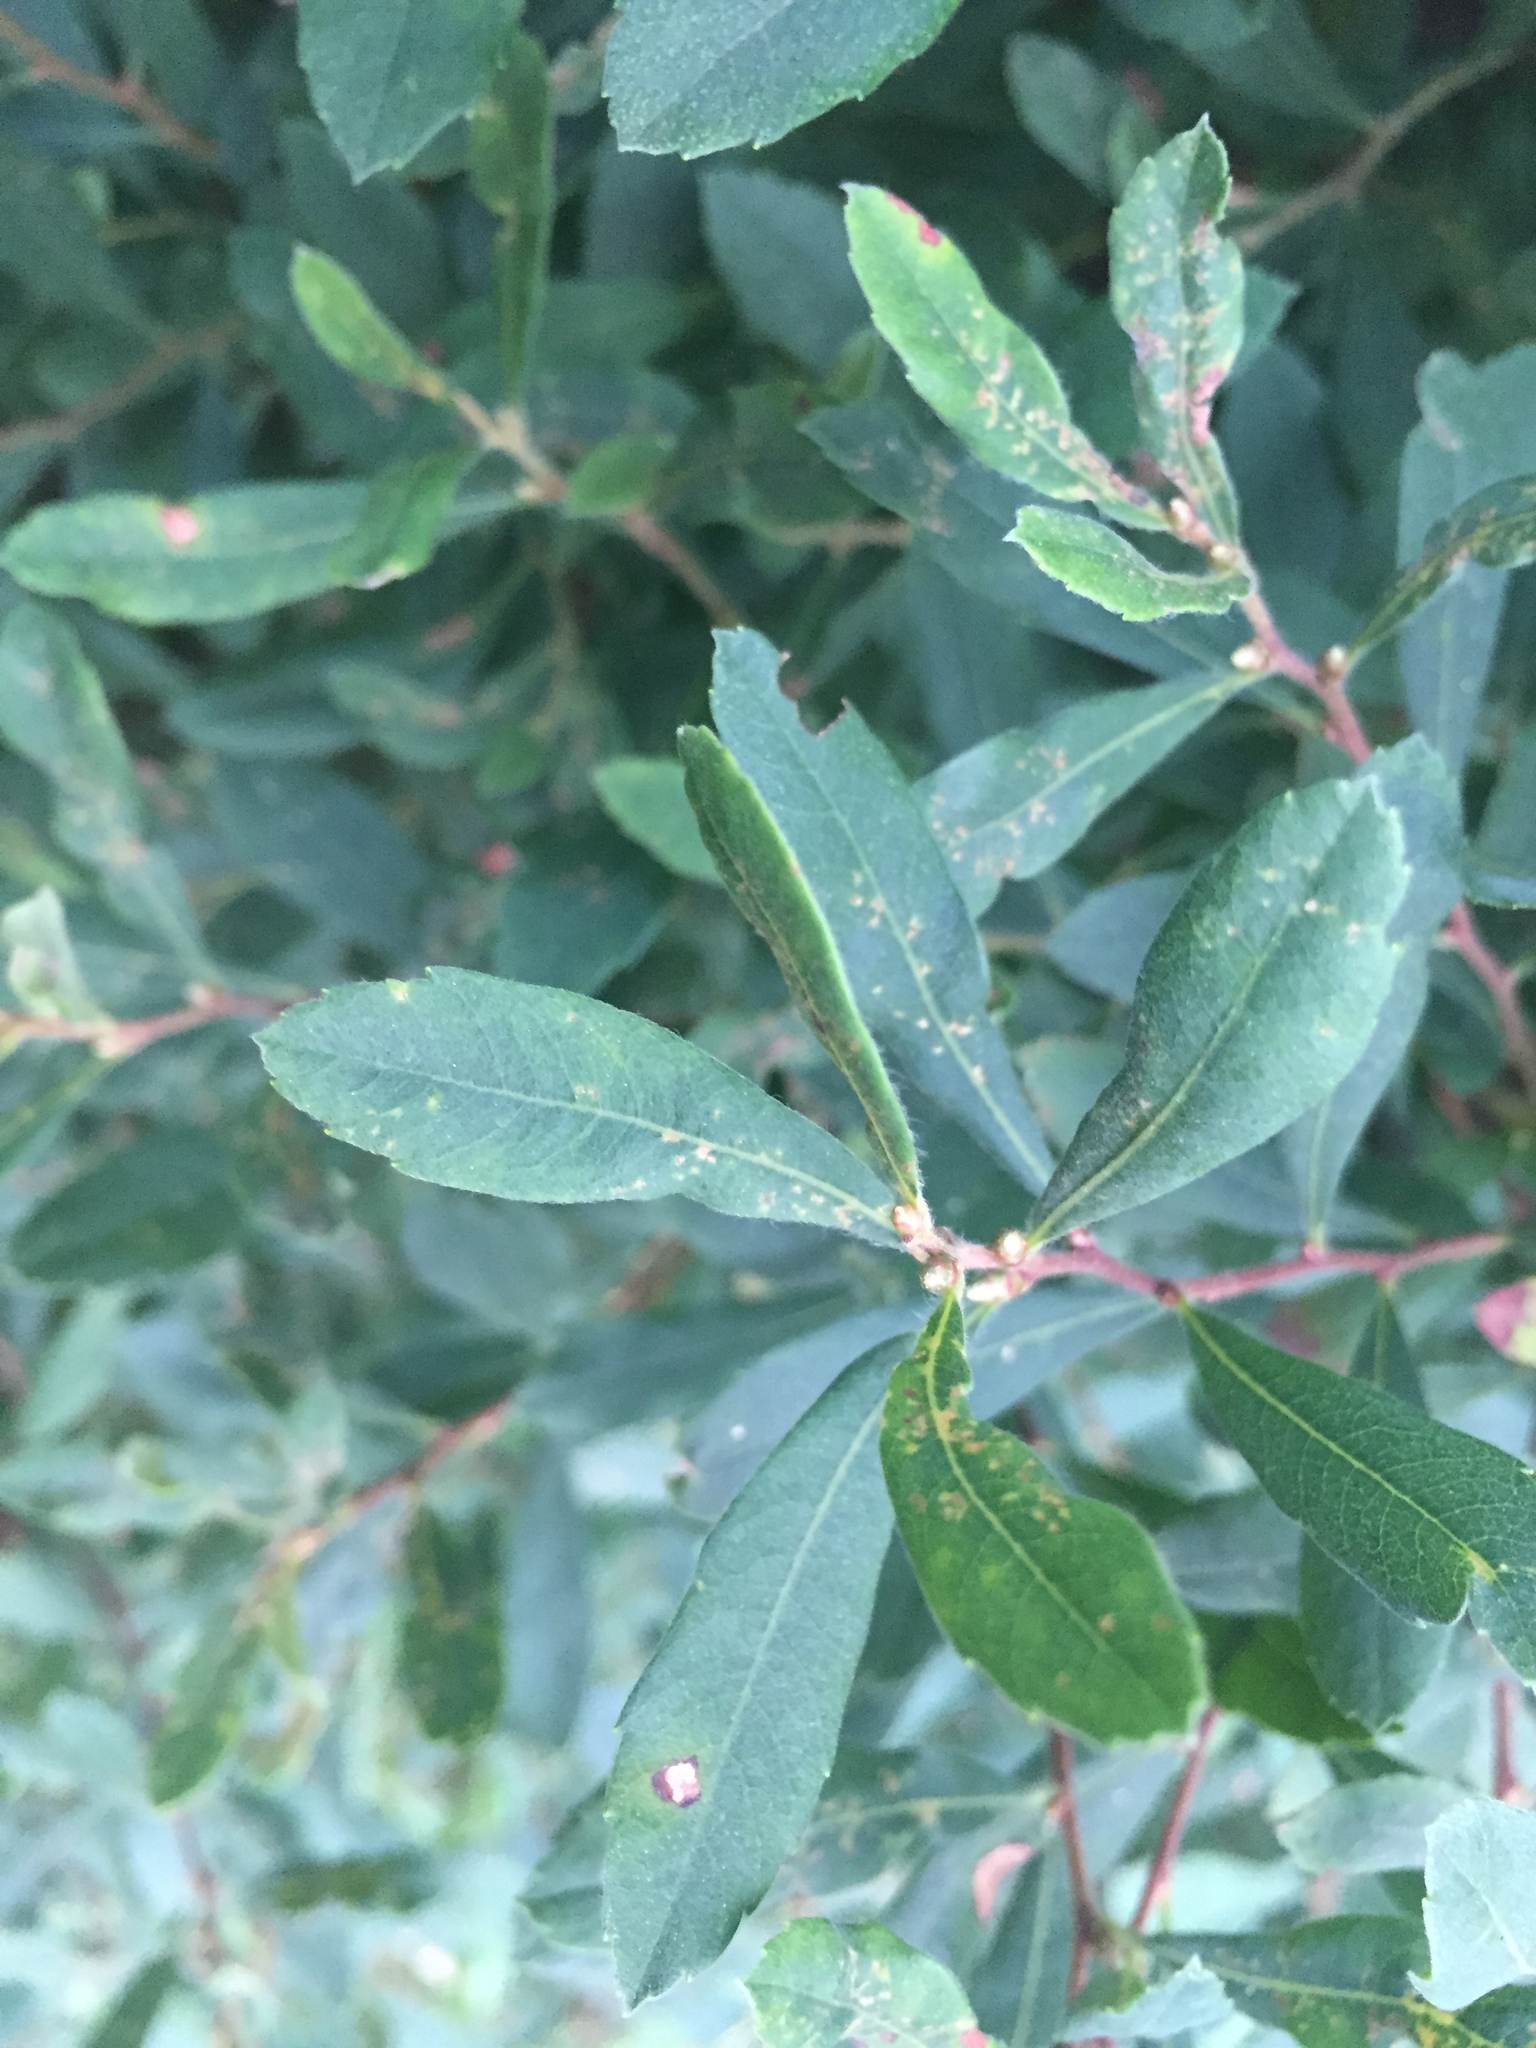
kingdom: Plantae
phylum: Tracheophyta
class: Magnoliopsida
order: Fagales
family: Myricaceae
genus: Myrica
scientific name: Myrica gale
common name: Sweet gale
